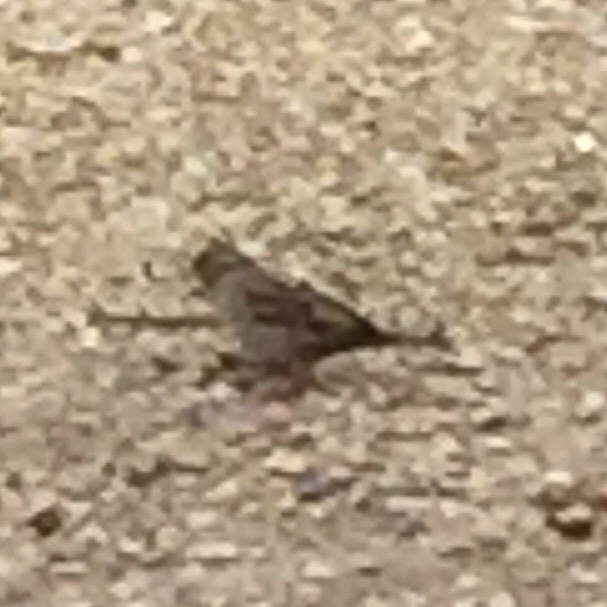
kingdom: Animalia
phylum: Chordata
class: Aves
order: Passeriformes
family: Passeridae
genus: Passer
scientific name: Passer domesticus
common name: House sparrow
